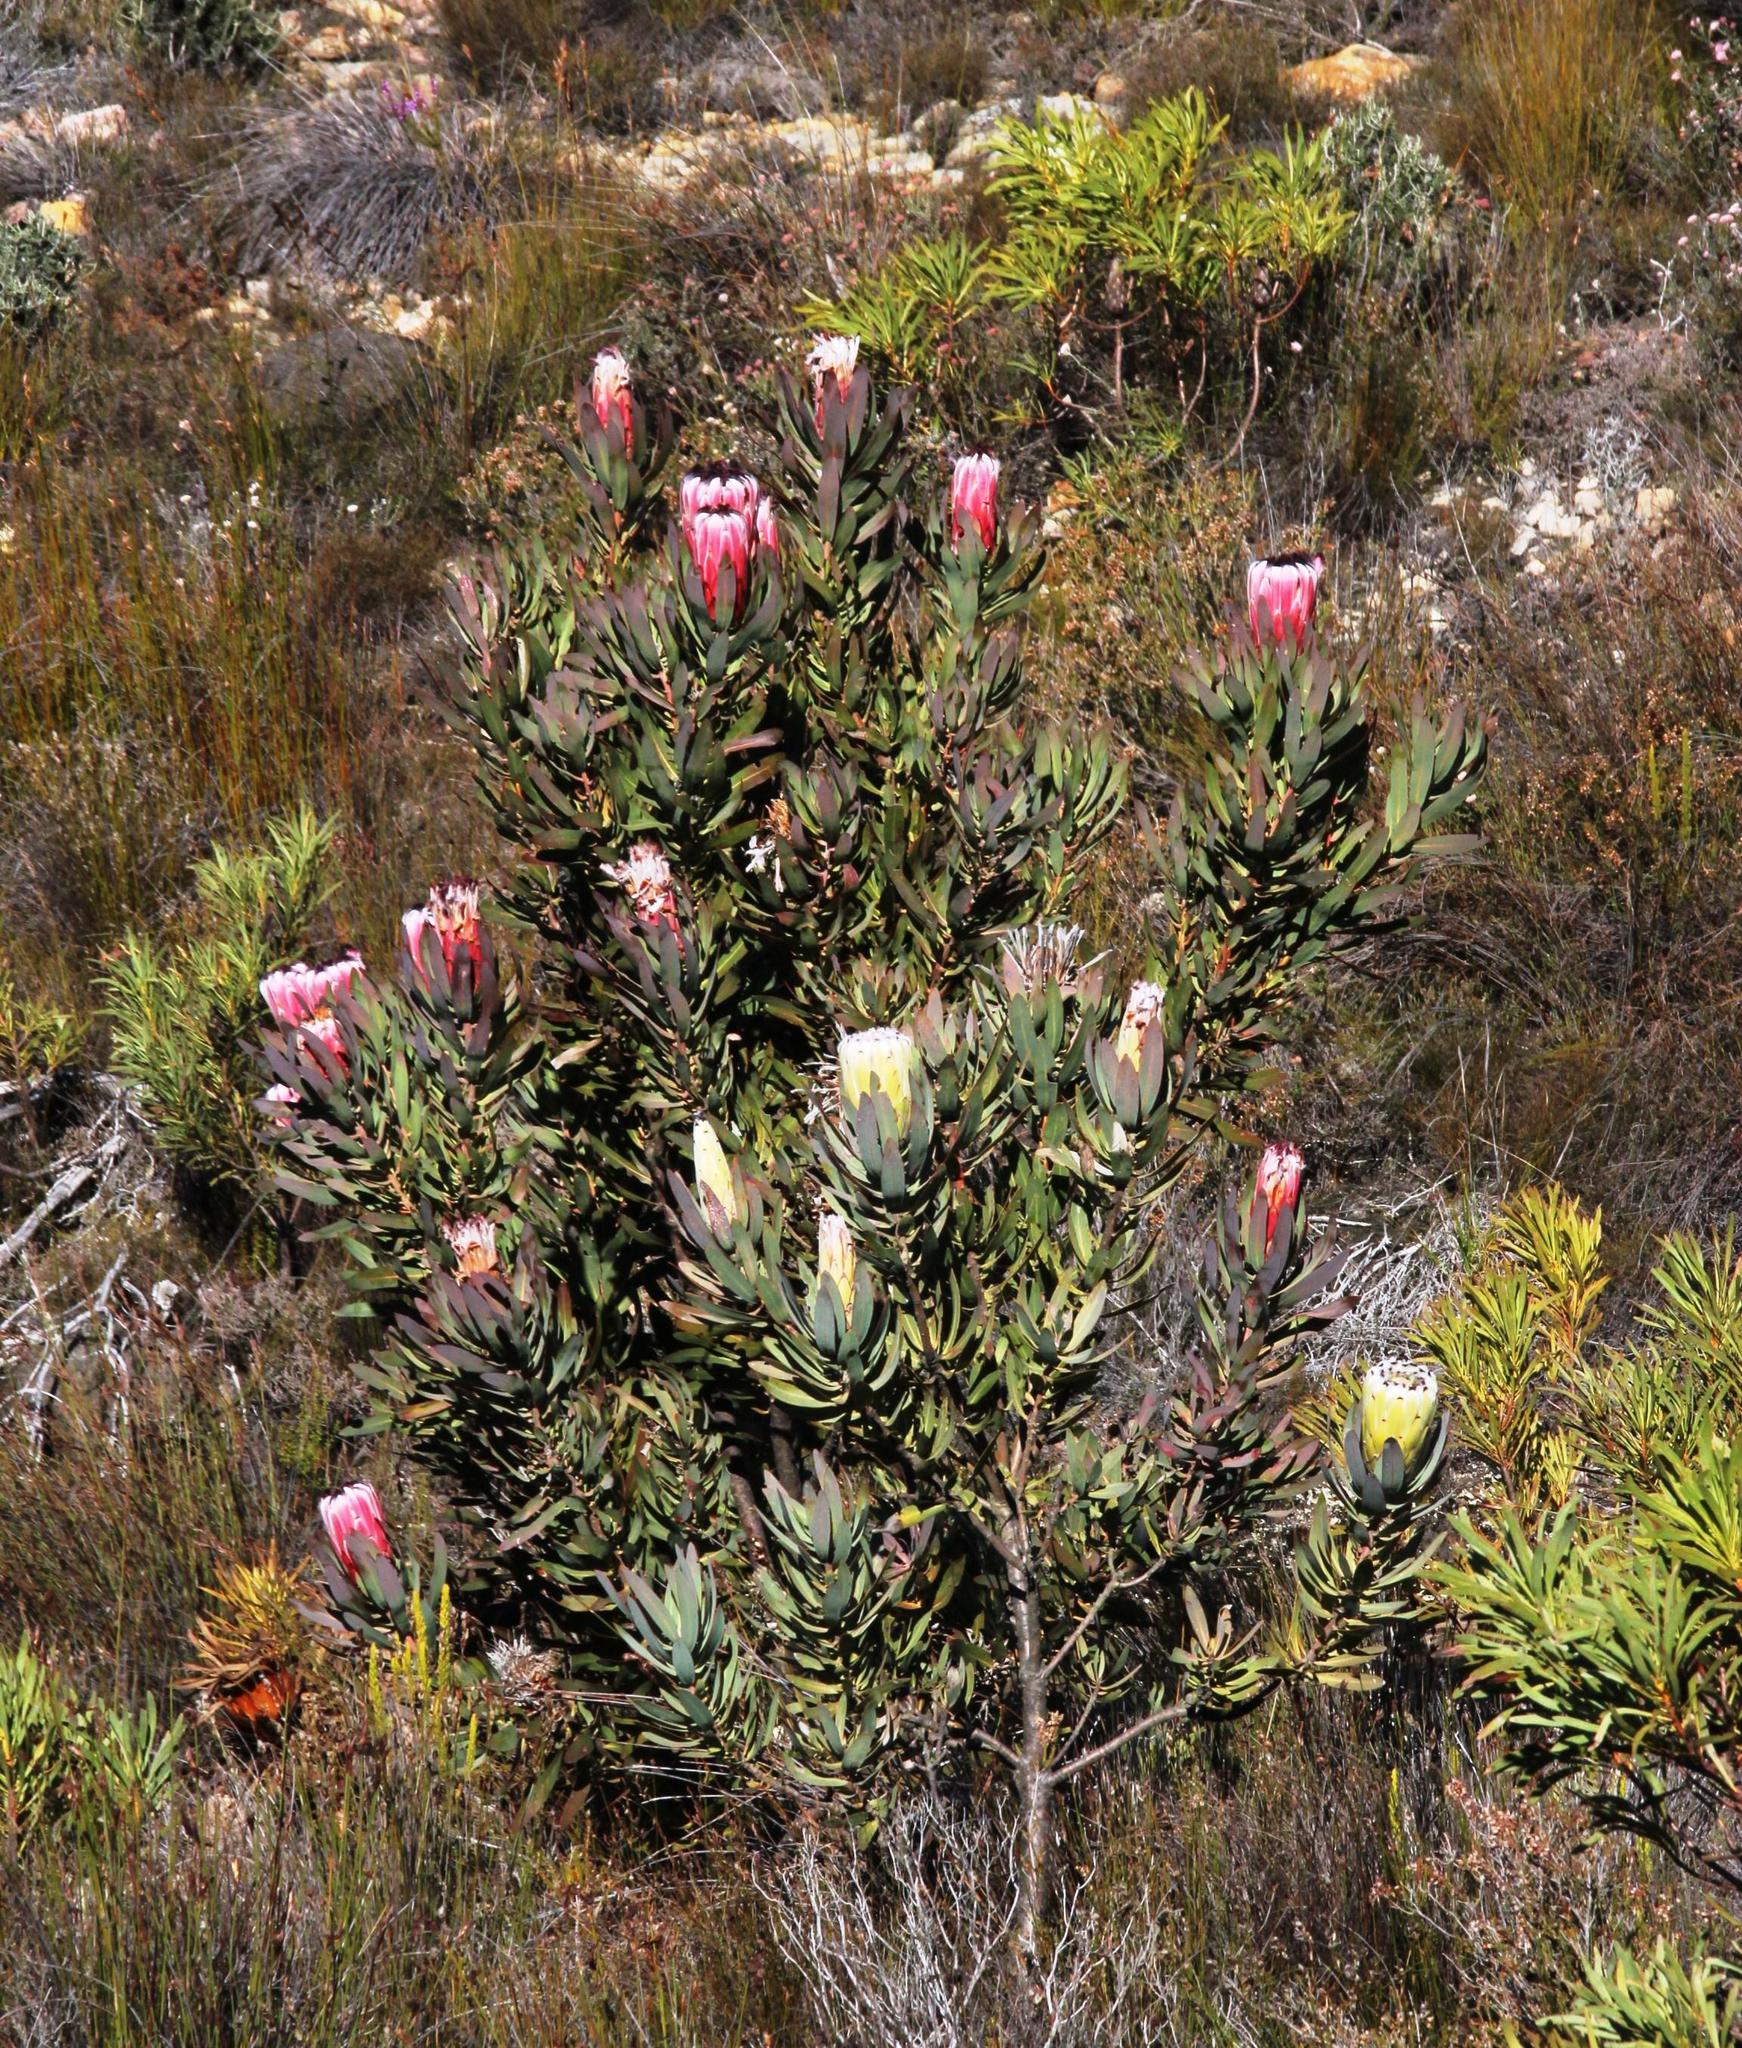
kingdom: Plantae
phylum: Tracheophyta
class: Magnoliopsida
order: Proteales
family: Proteaceae
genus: Protea
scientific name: Protea laurifolia
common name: Grey-leaf sugarbsh
